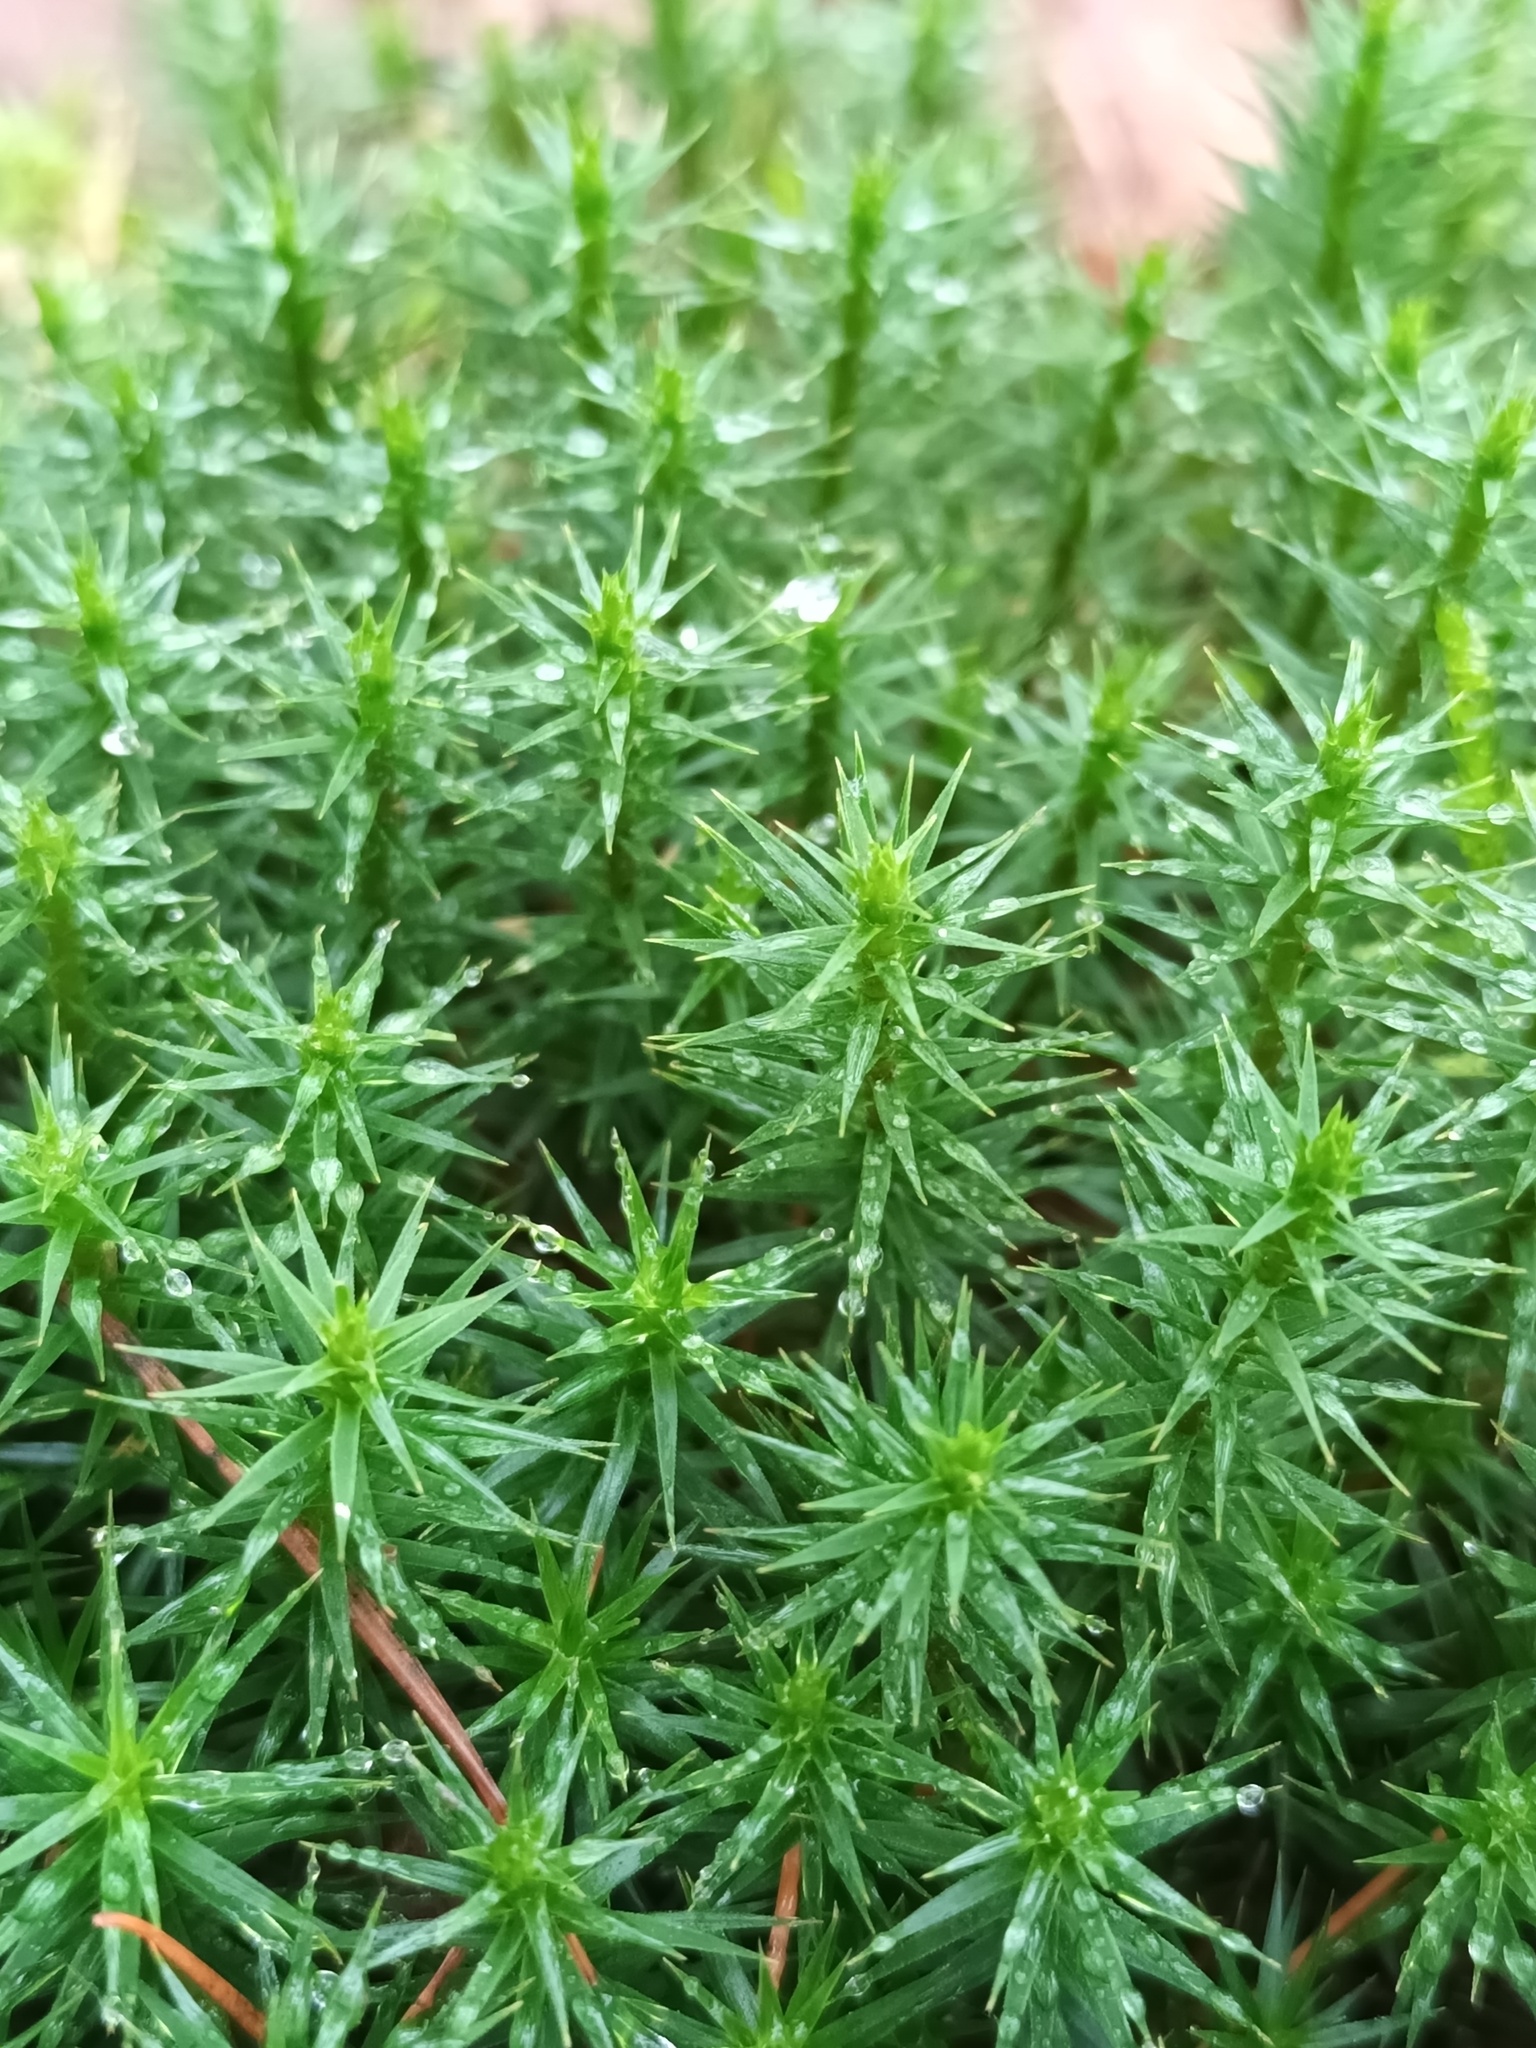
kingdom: Plantae
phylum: Bryophyta
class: Polytrichopsida
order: Polytrichales
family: Polytrichaceae
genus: Polytrichum
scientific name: Polytrichum formosum
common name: Bank haircap moss
